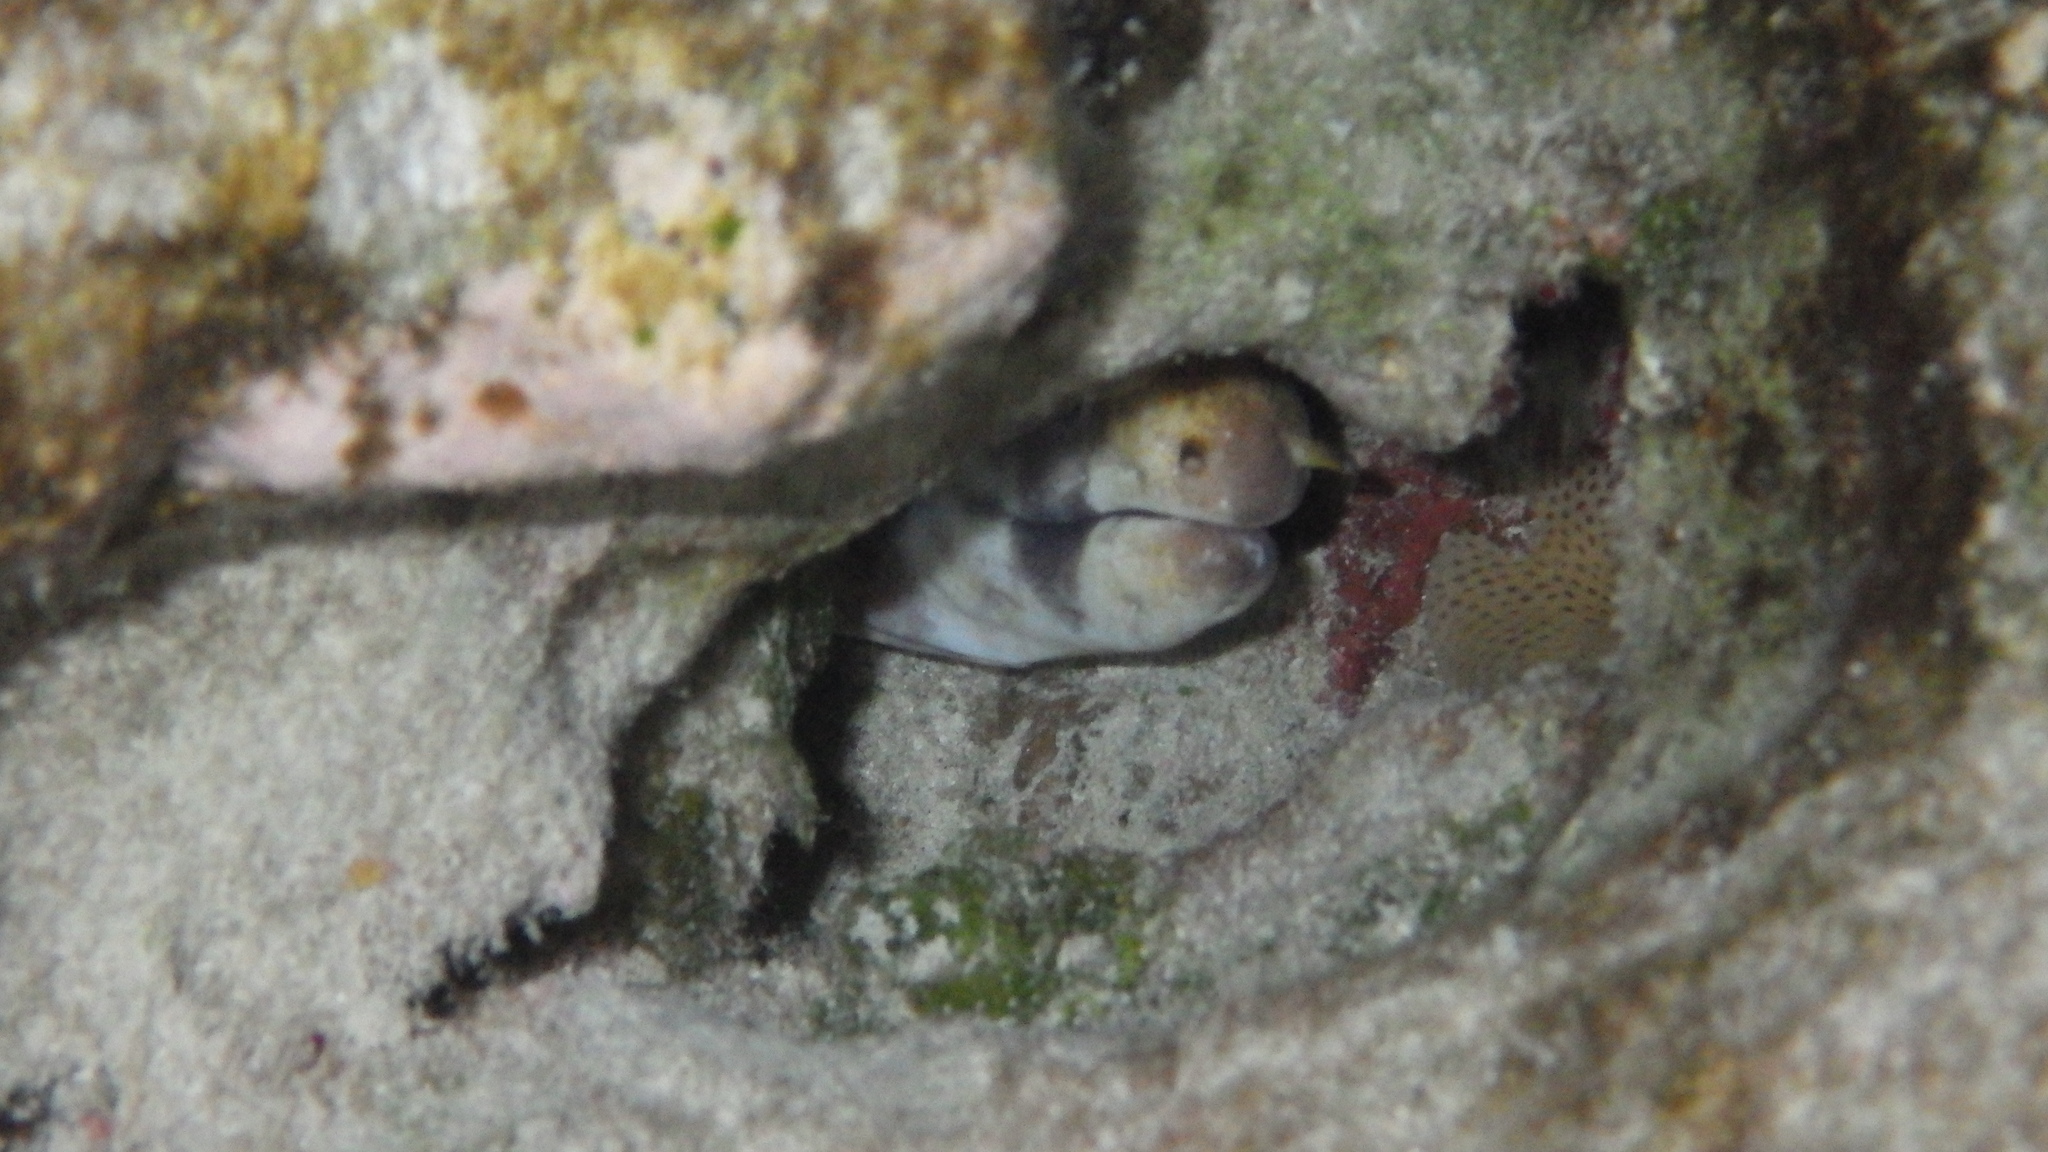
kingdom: Animalia
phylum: Chordata
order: Anguilliformes
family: Muraenidae
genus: Echidna
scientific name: Echidna polyzona
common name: Barred moray
